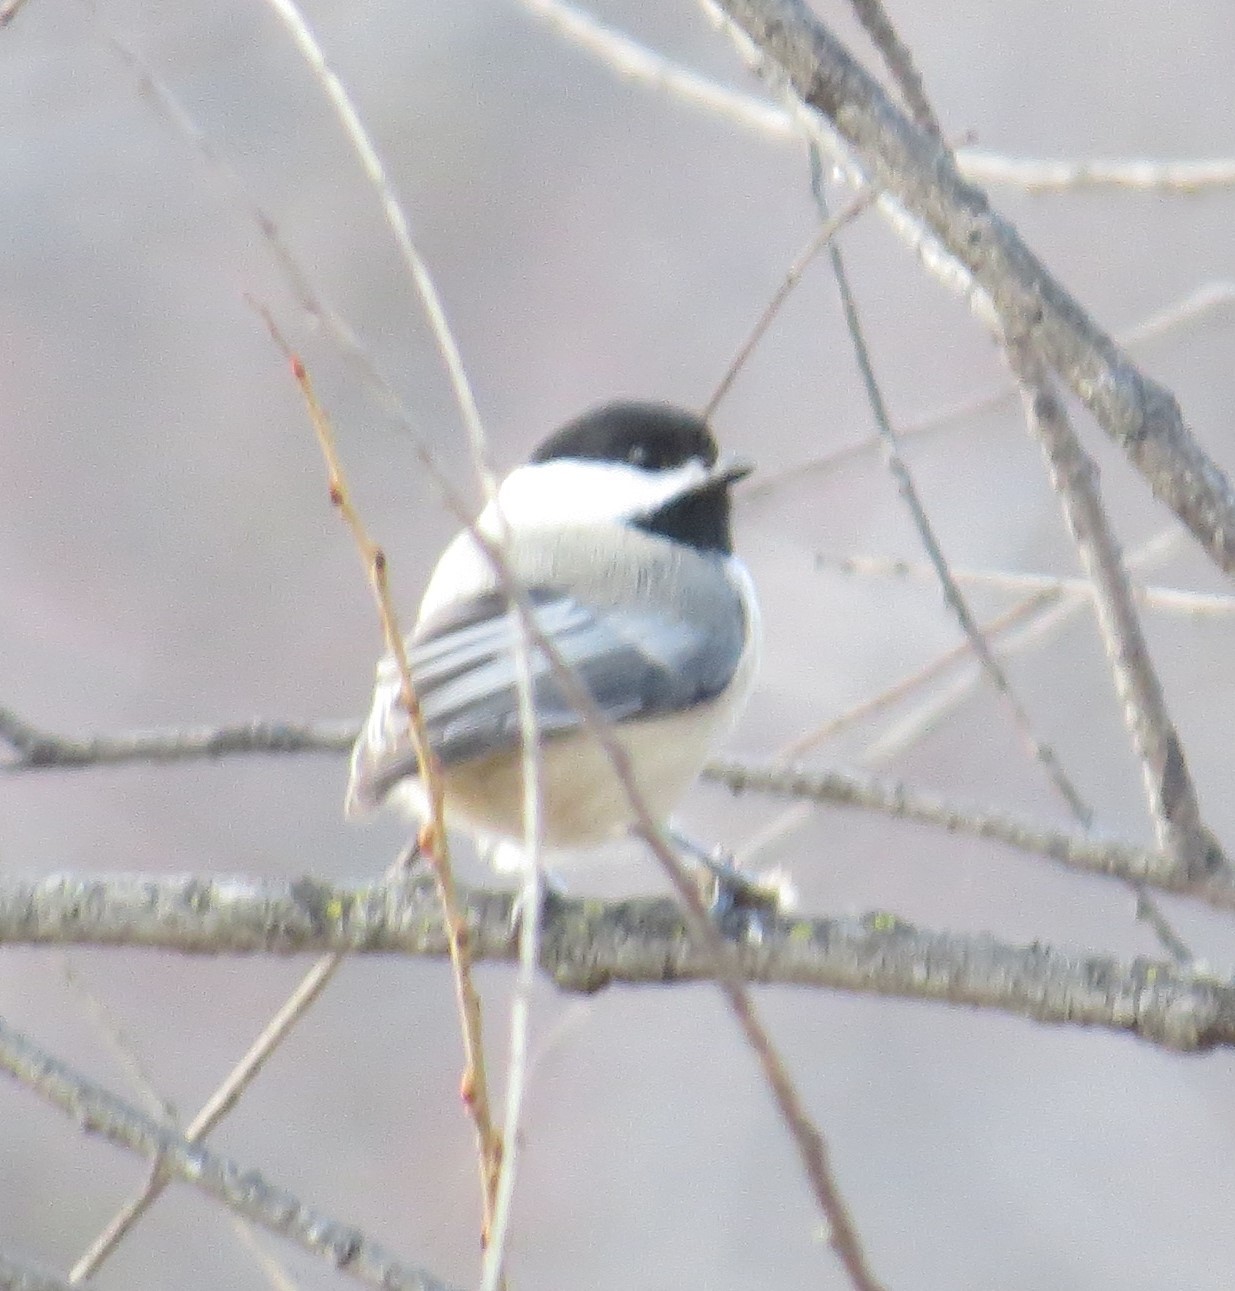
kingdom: Animalia
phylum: Chordata
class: Aves
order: Passeriformes
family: Paridae
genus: Poecile
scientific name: Poecile atricapillus
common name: Black-capped chickadee
